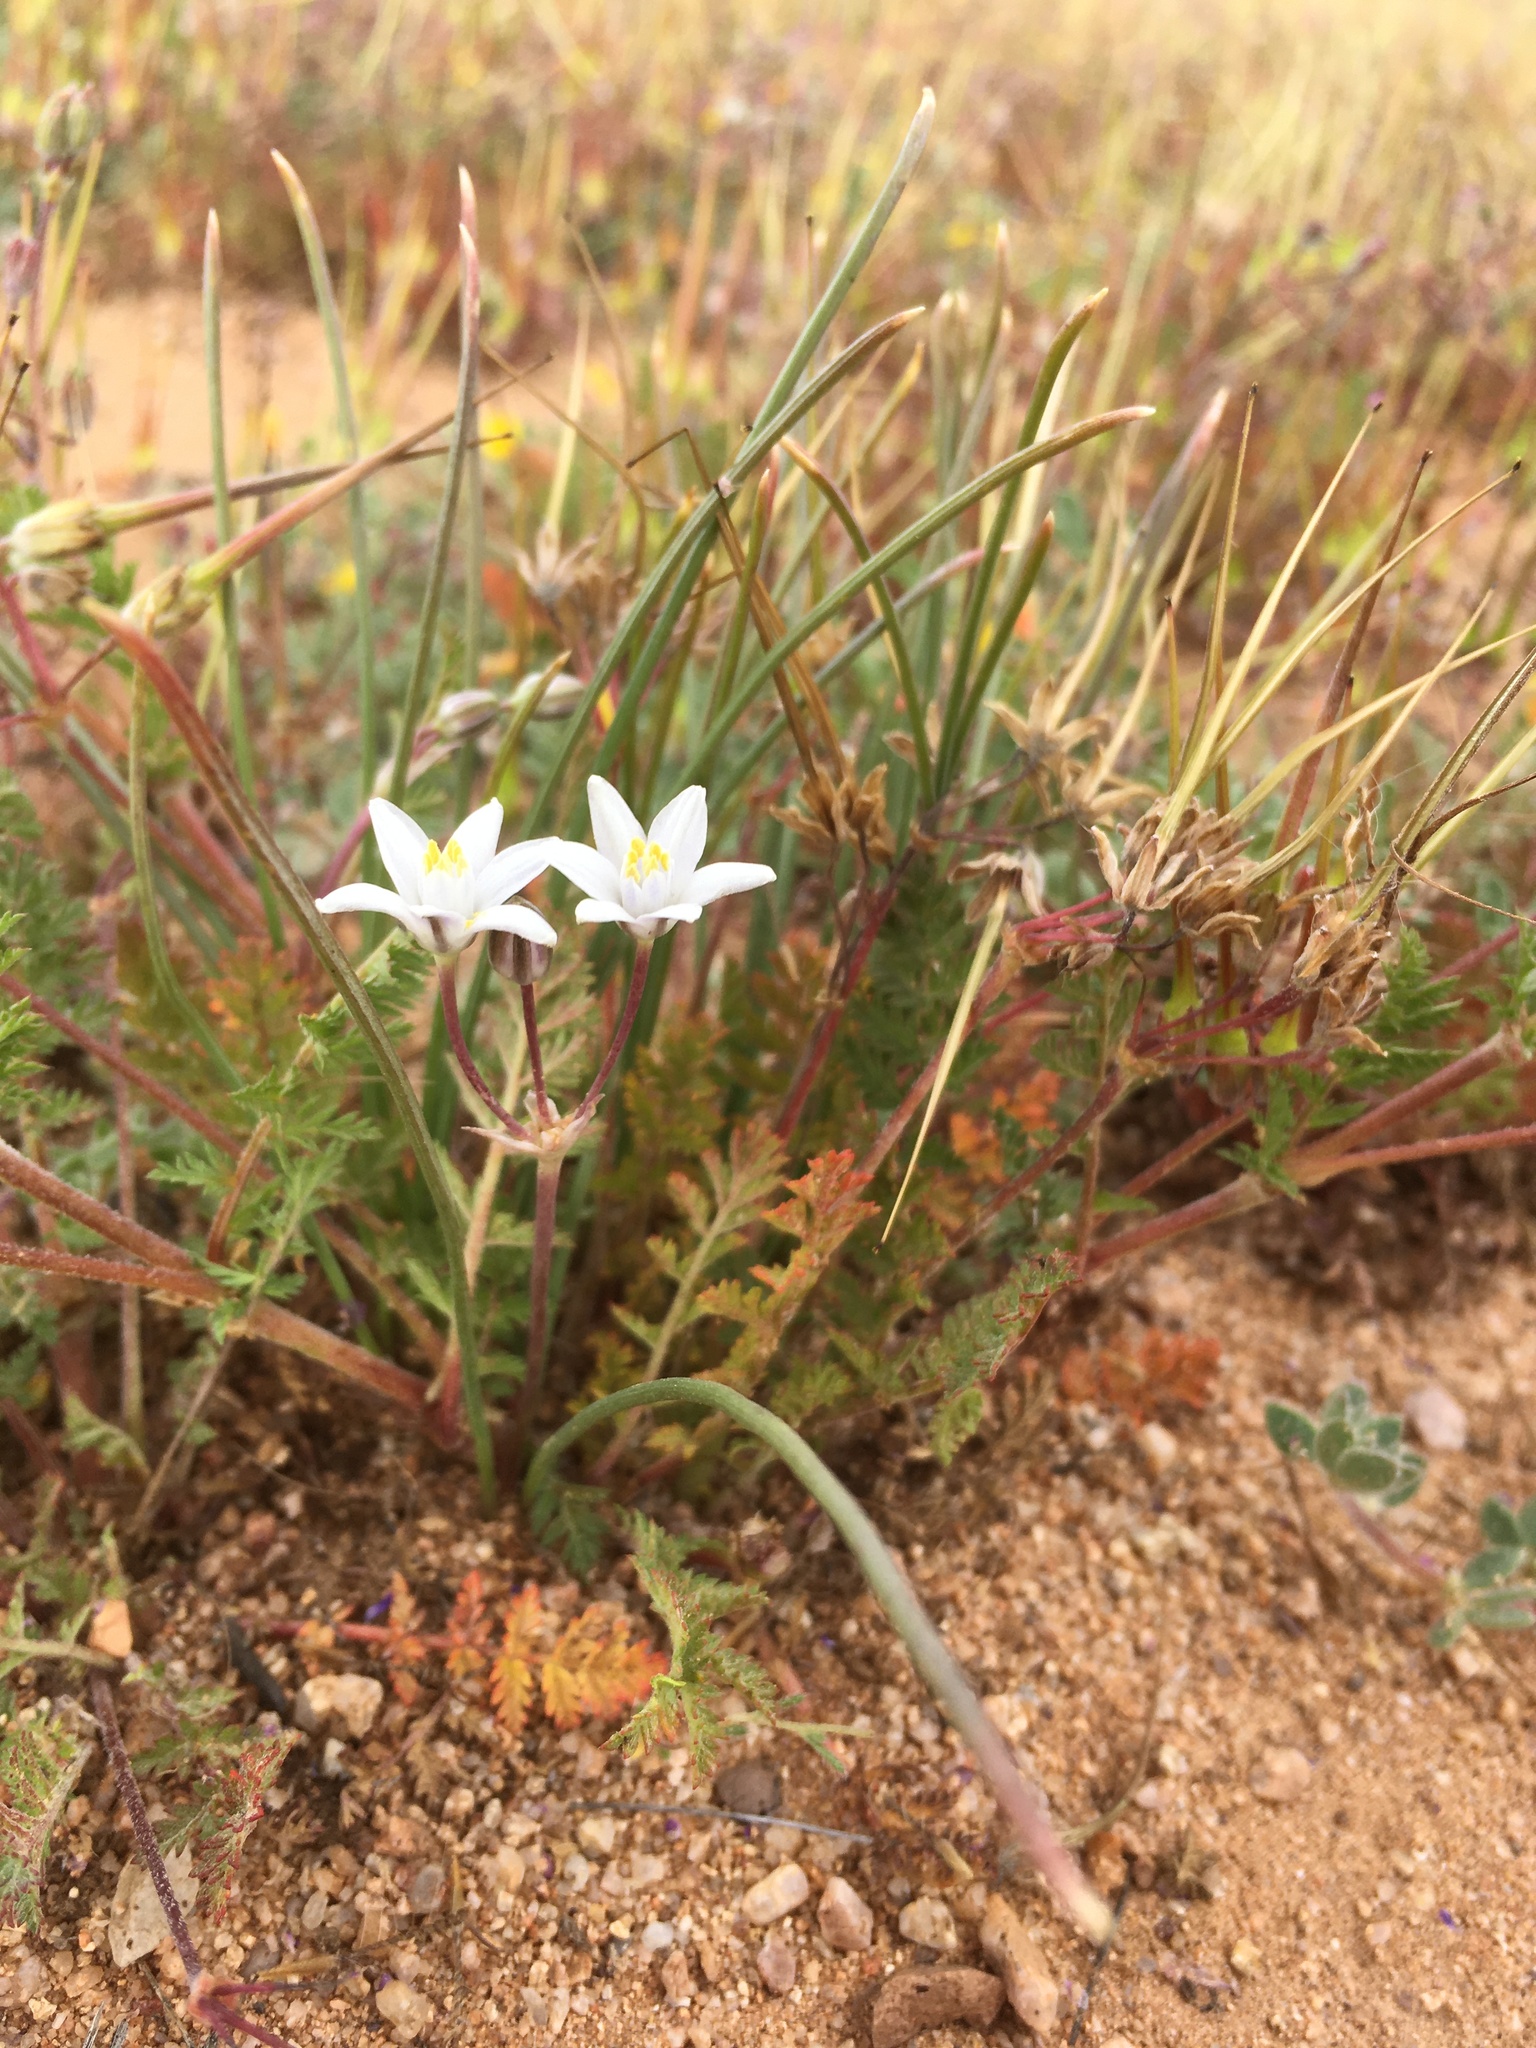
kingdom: Plantae
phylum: Tracheophyta
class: Liliopsida
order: Asparagales
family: Asparagaceae
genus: Muilla
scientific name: Muilla lordsburgana
